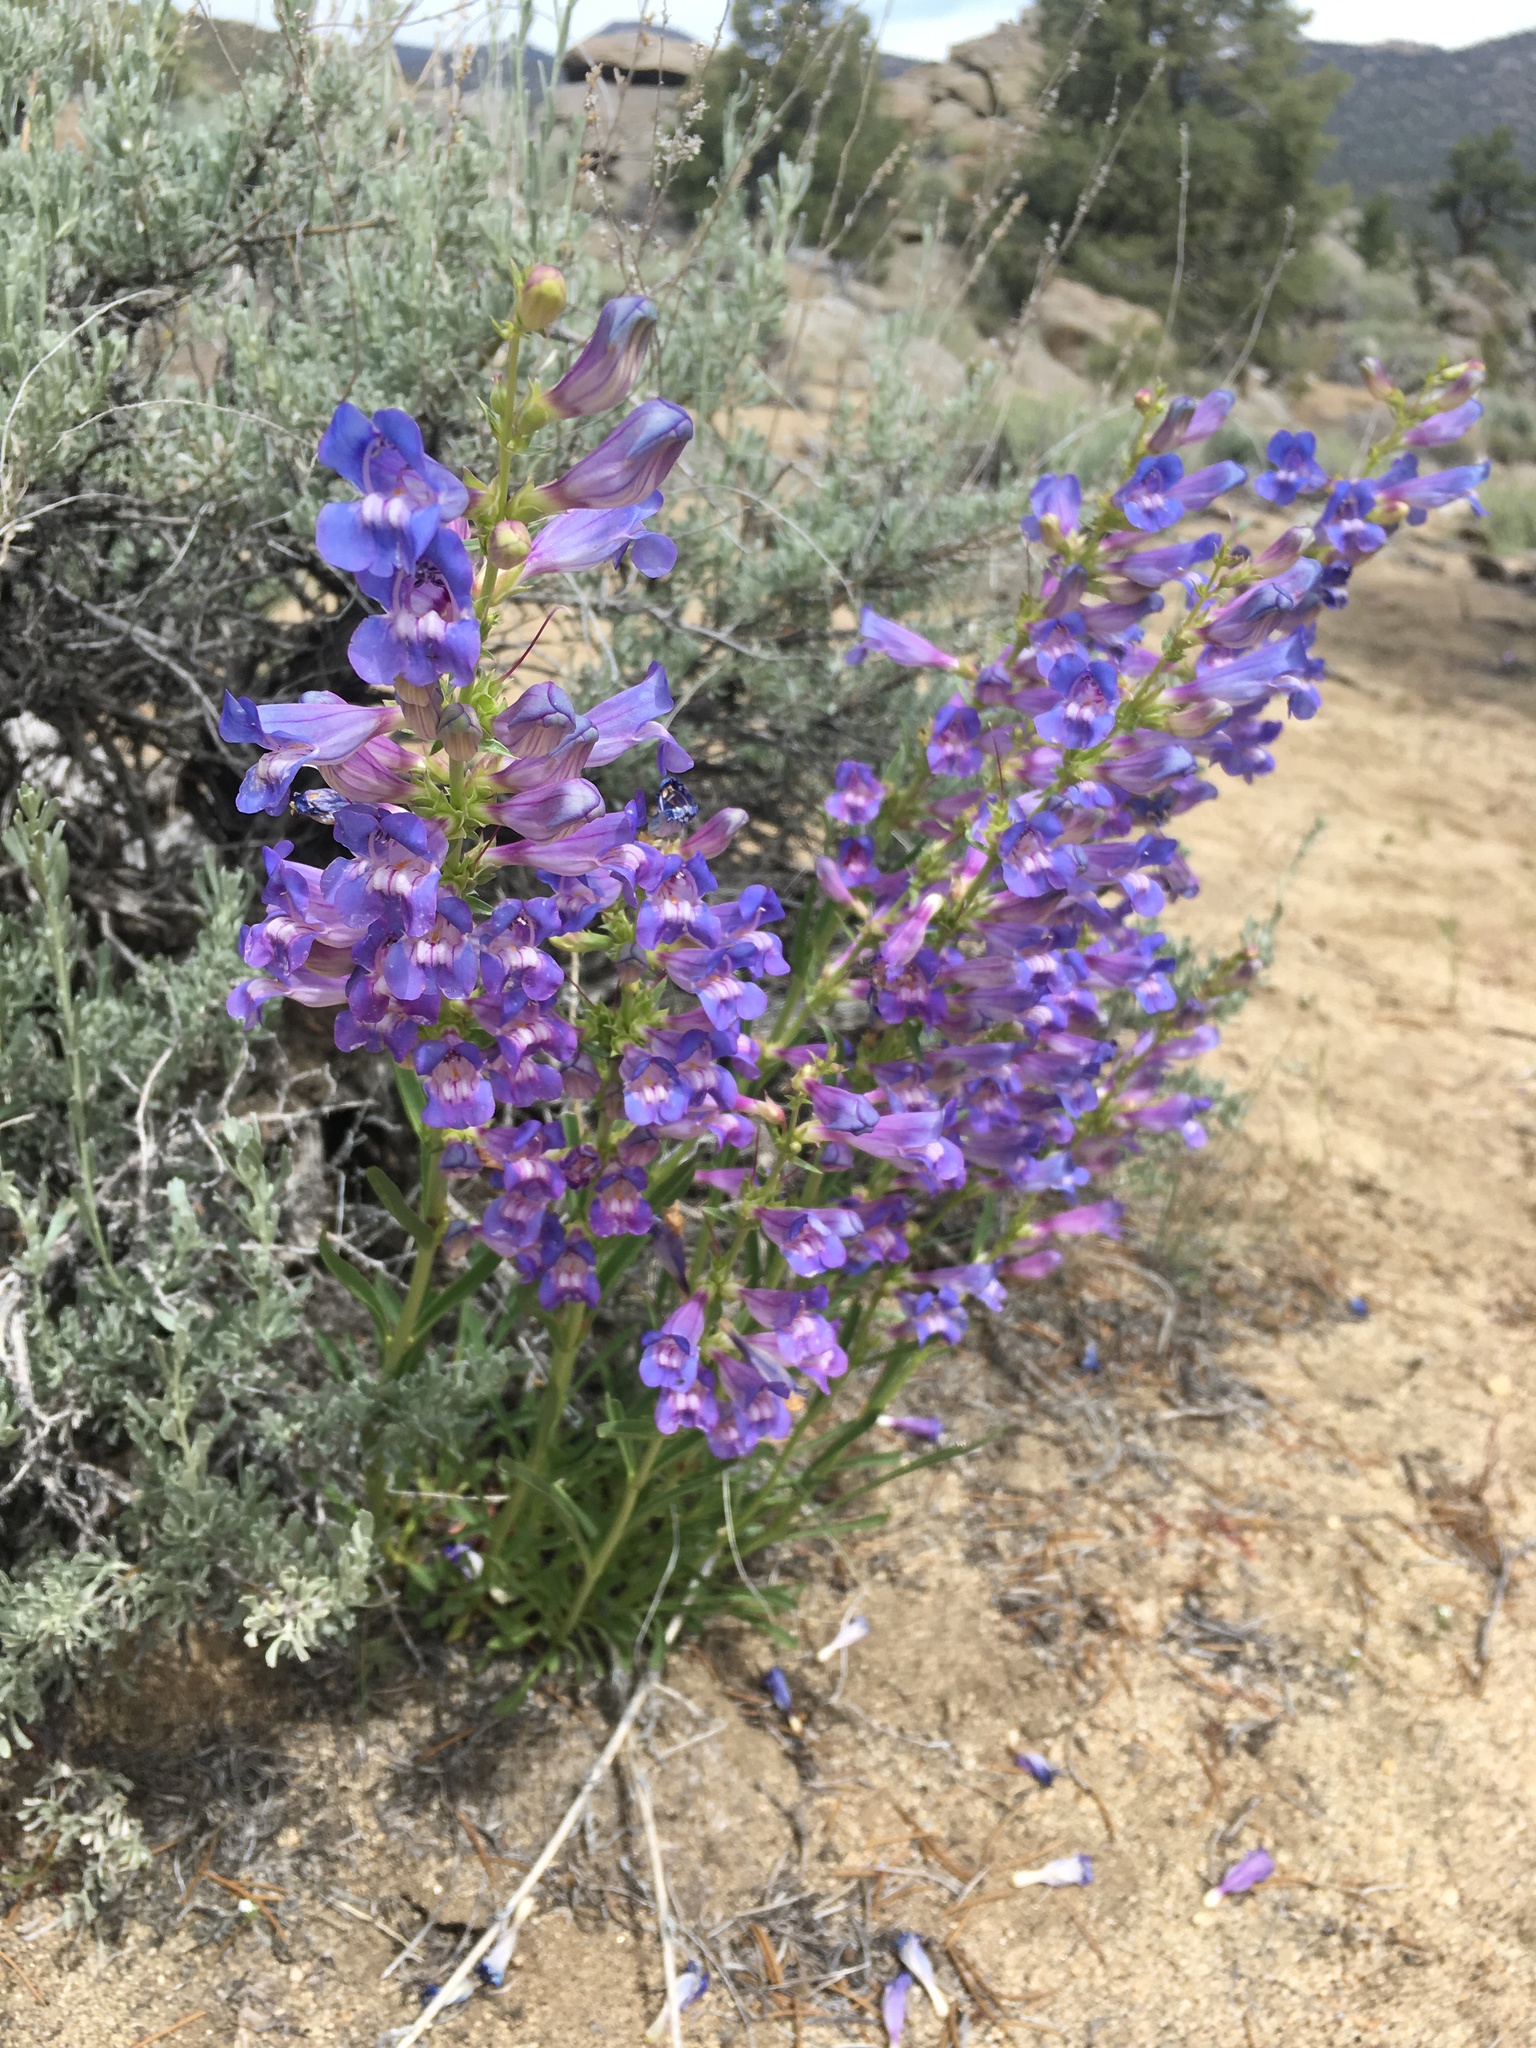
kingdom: Plantae
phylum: Tracheophyta
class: Magnoliopsida
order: Lamiales
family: Plantaginaceae
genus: Penstemon
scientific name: Penstemon speciosus
